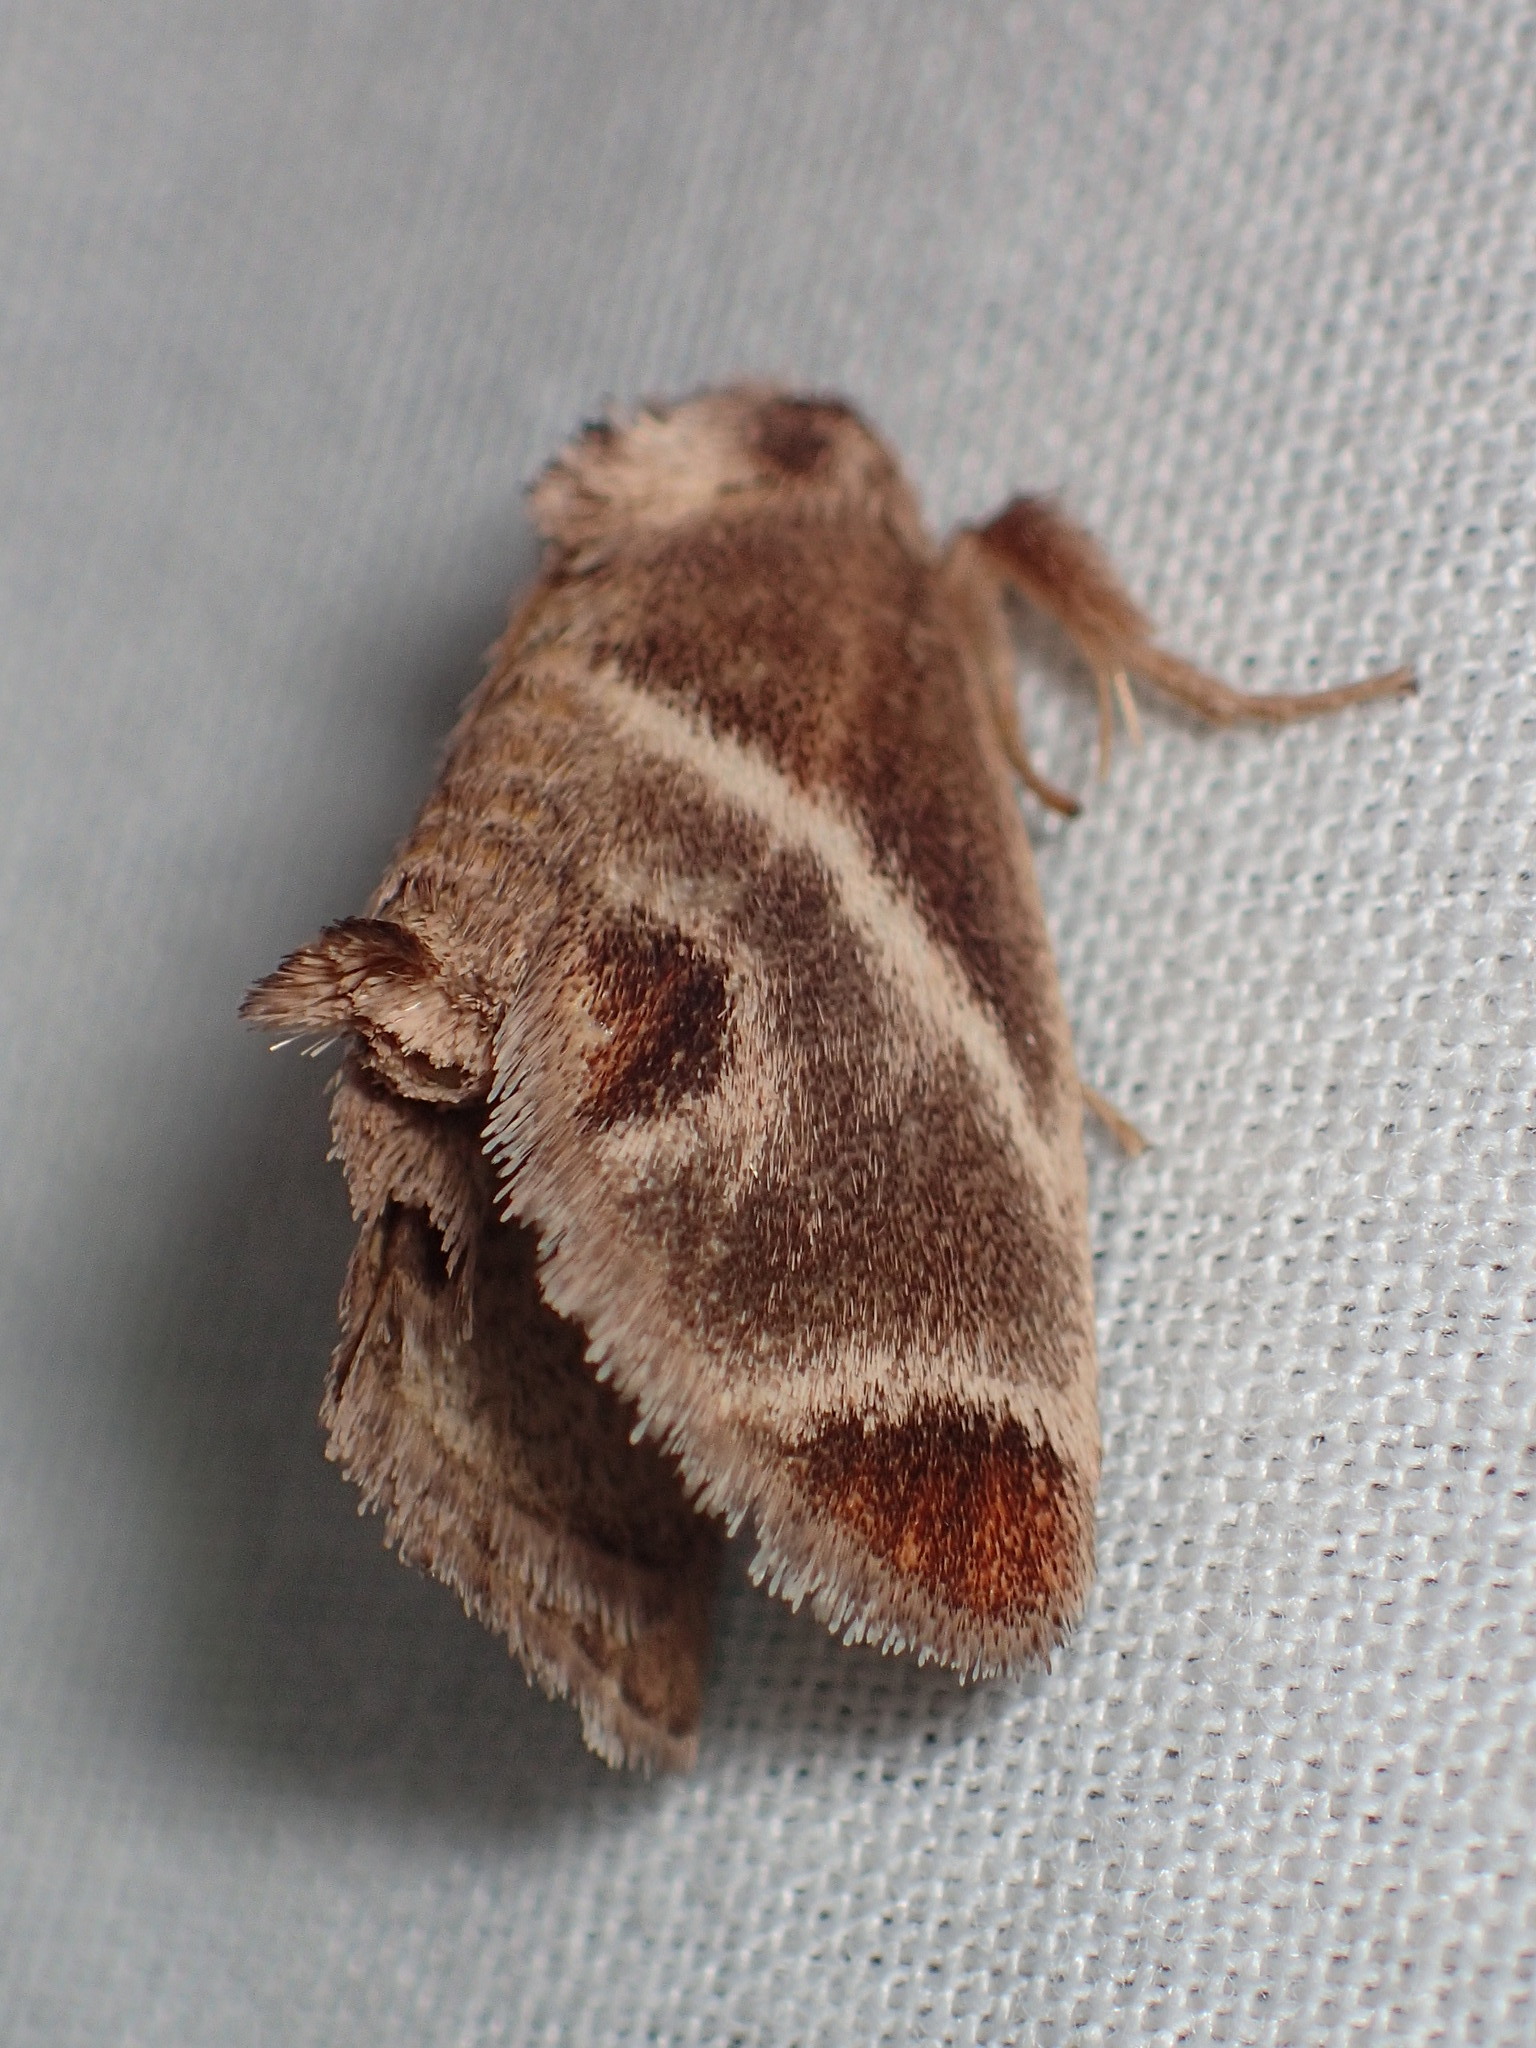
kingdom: Animalia
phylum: Arthropoda
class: Insecta
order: Lepidoptera
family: Limacodidae
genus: Apoda
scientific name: Apoda biguttata
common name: Shagreened slug moth
